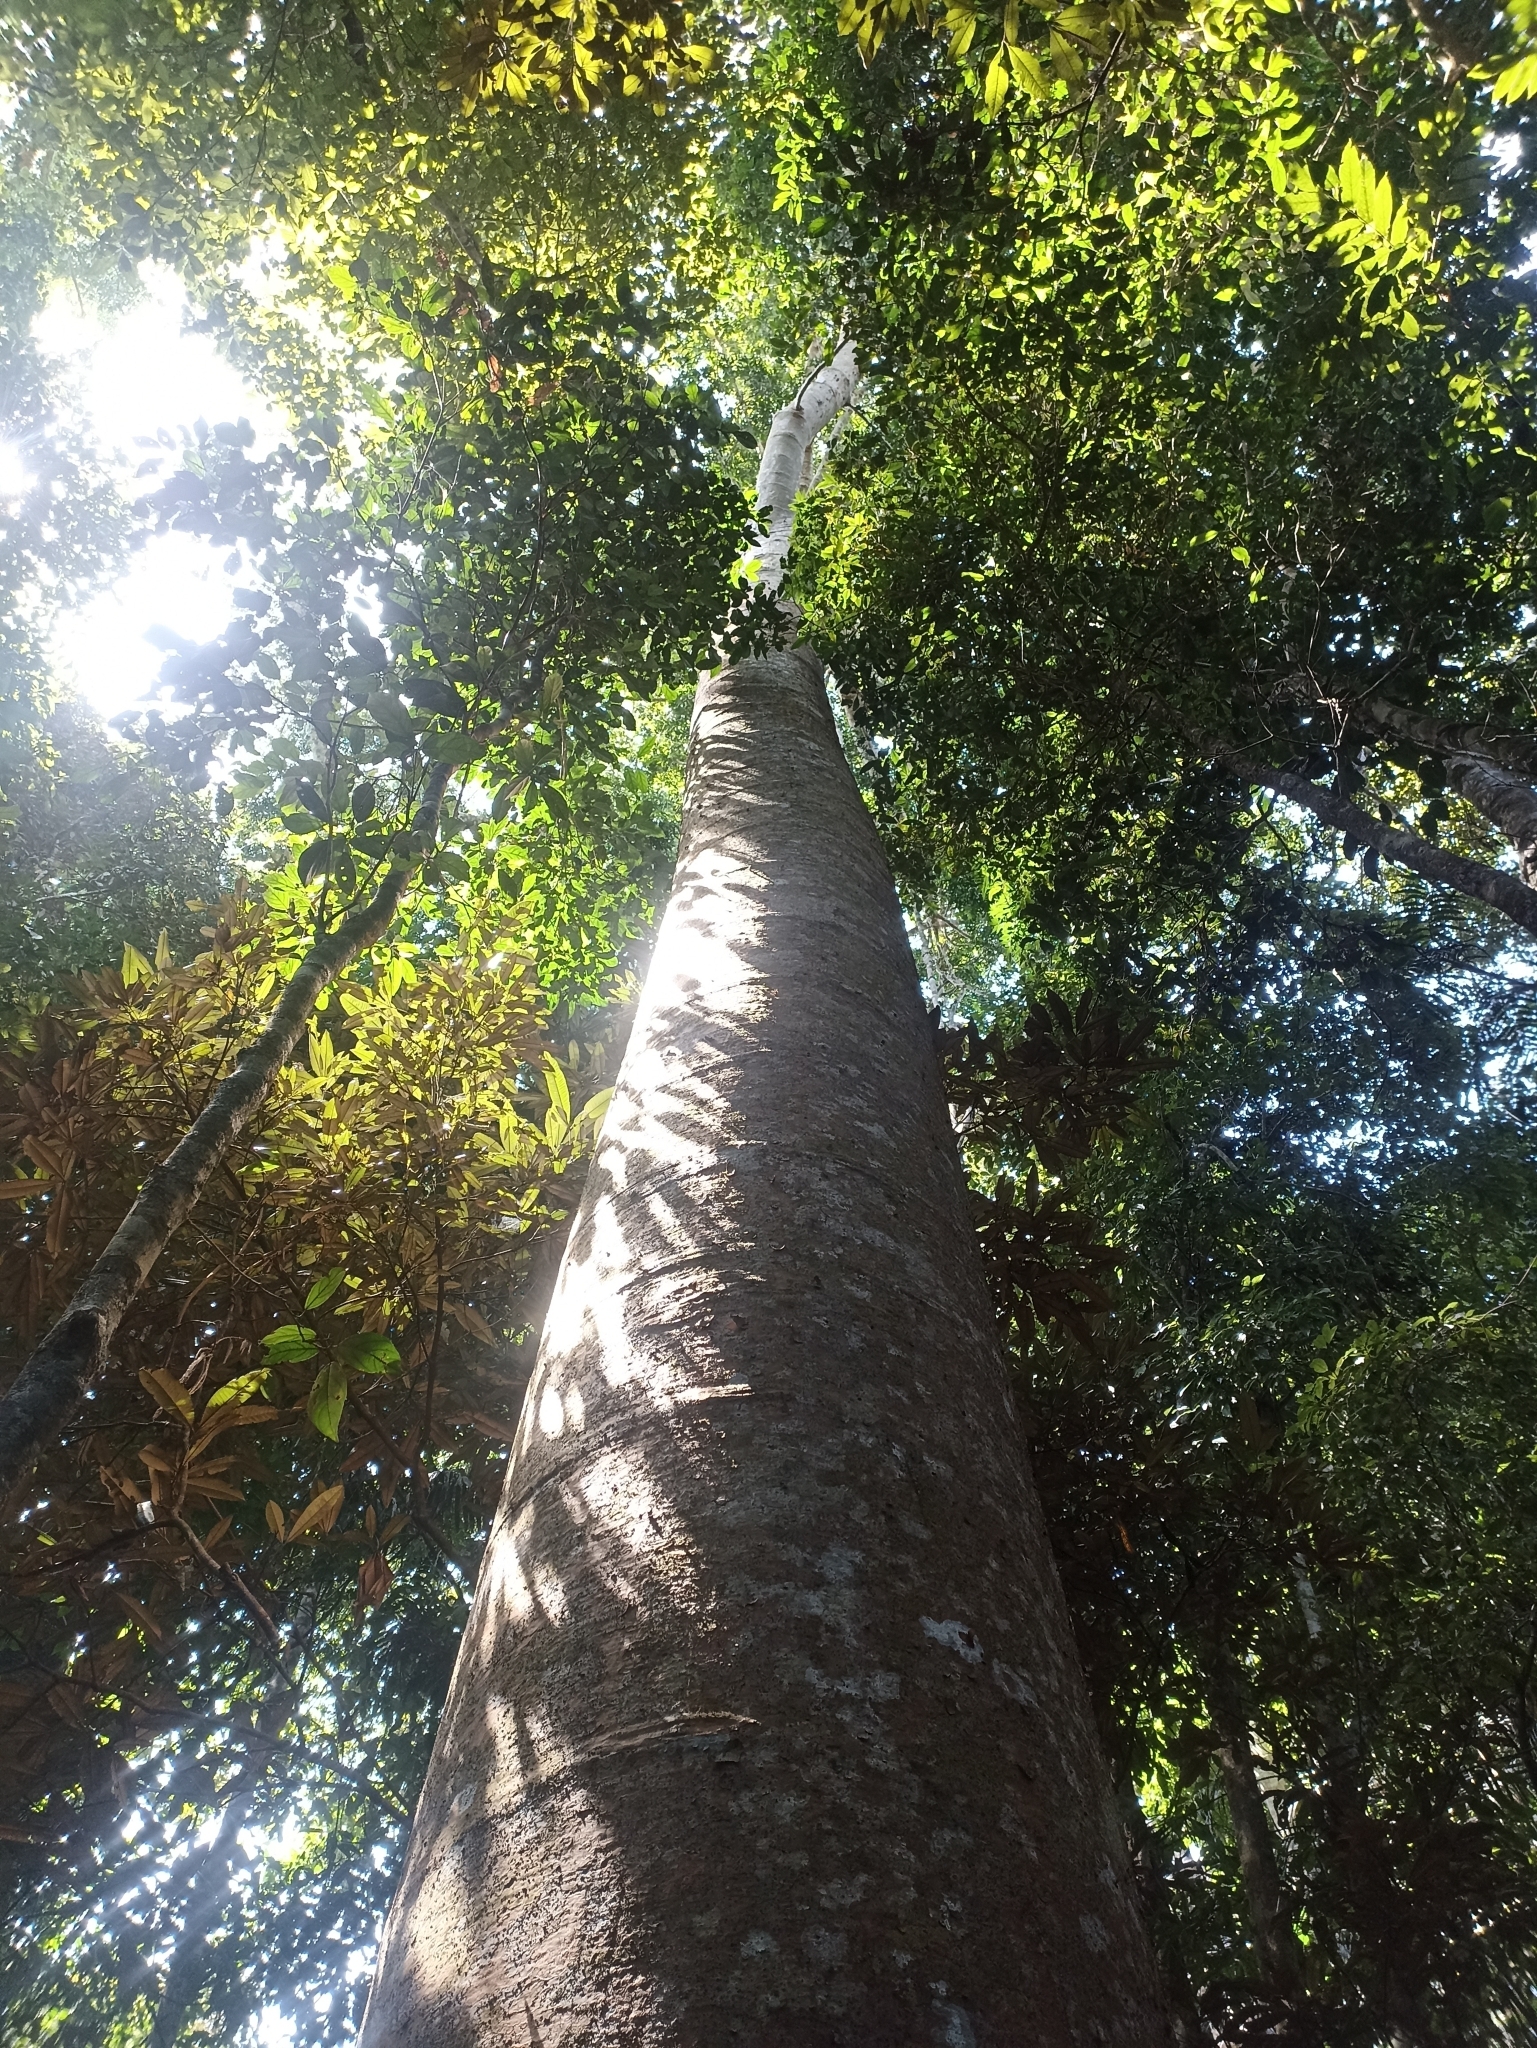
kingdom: Plantae
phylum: Tracheophyta
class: Pinopsida
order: Pinales
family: Araucariaceae
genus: Agathis
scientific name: Agathis robusta
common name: Australian-kauri
